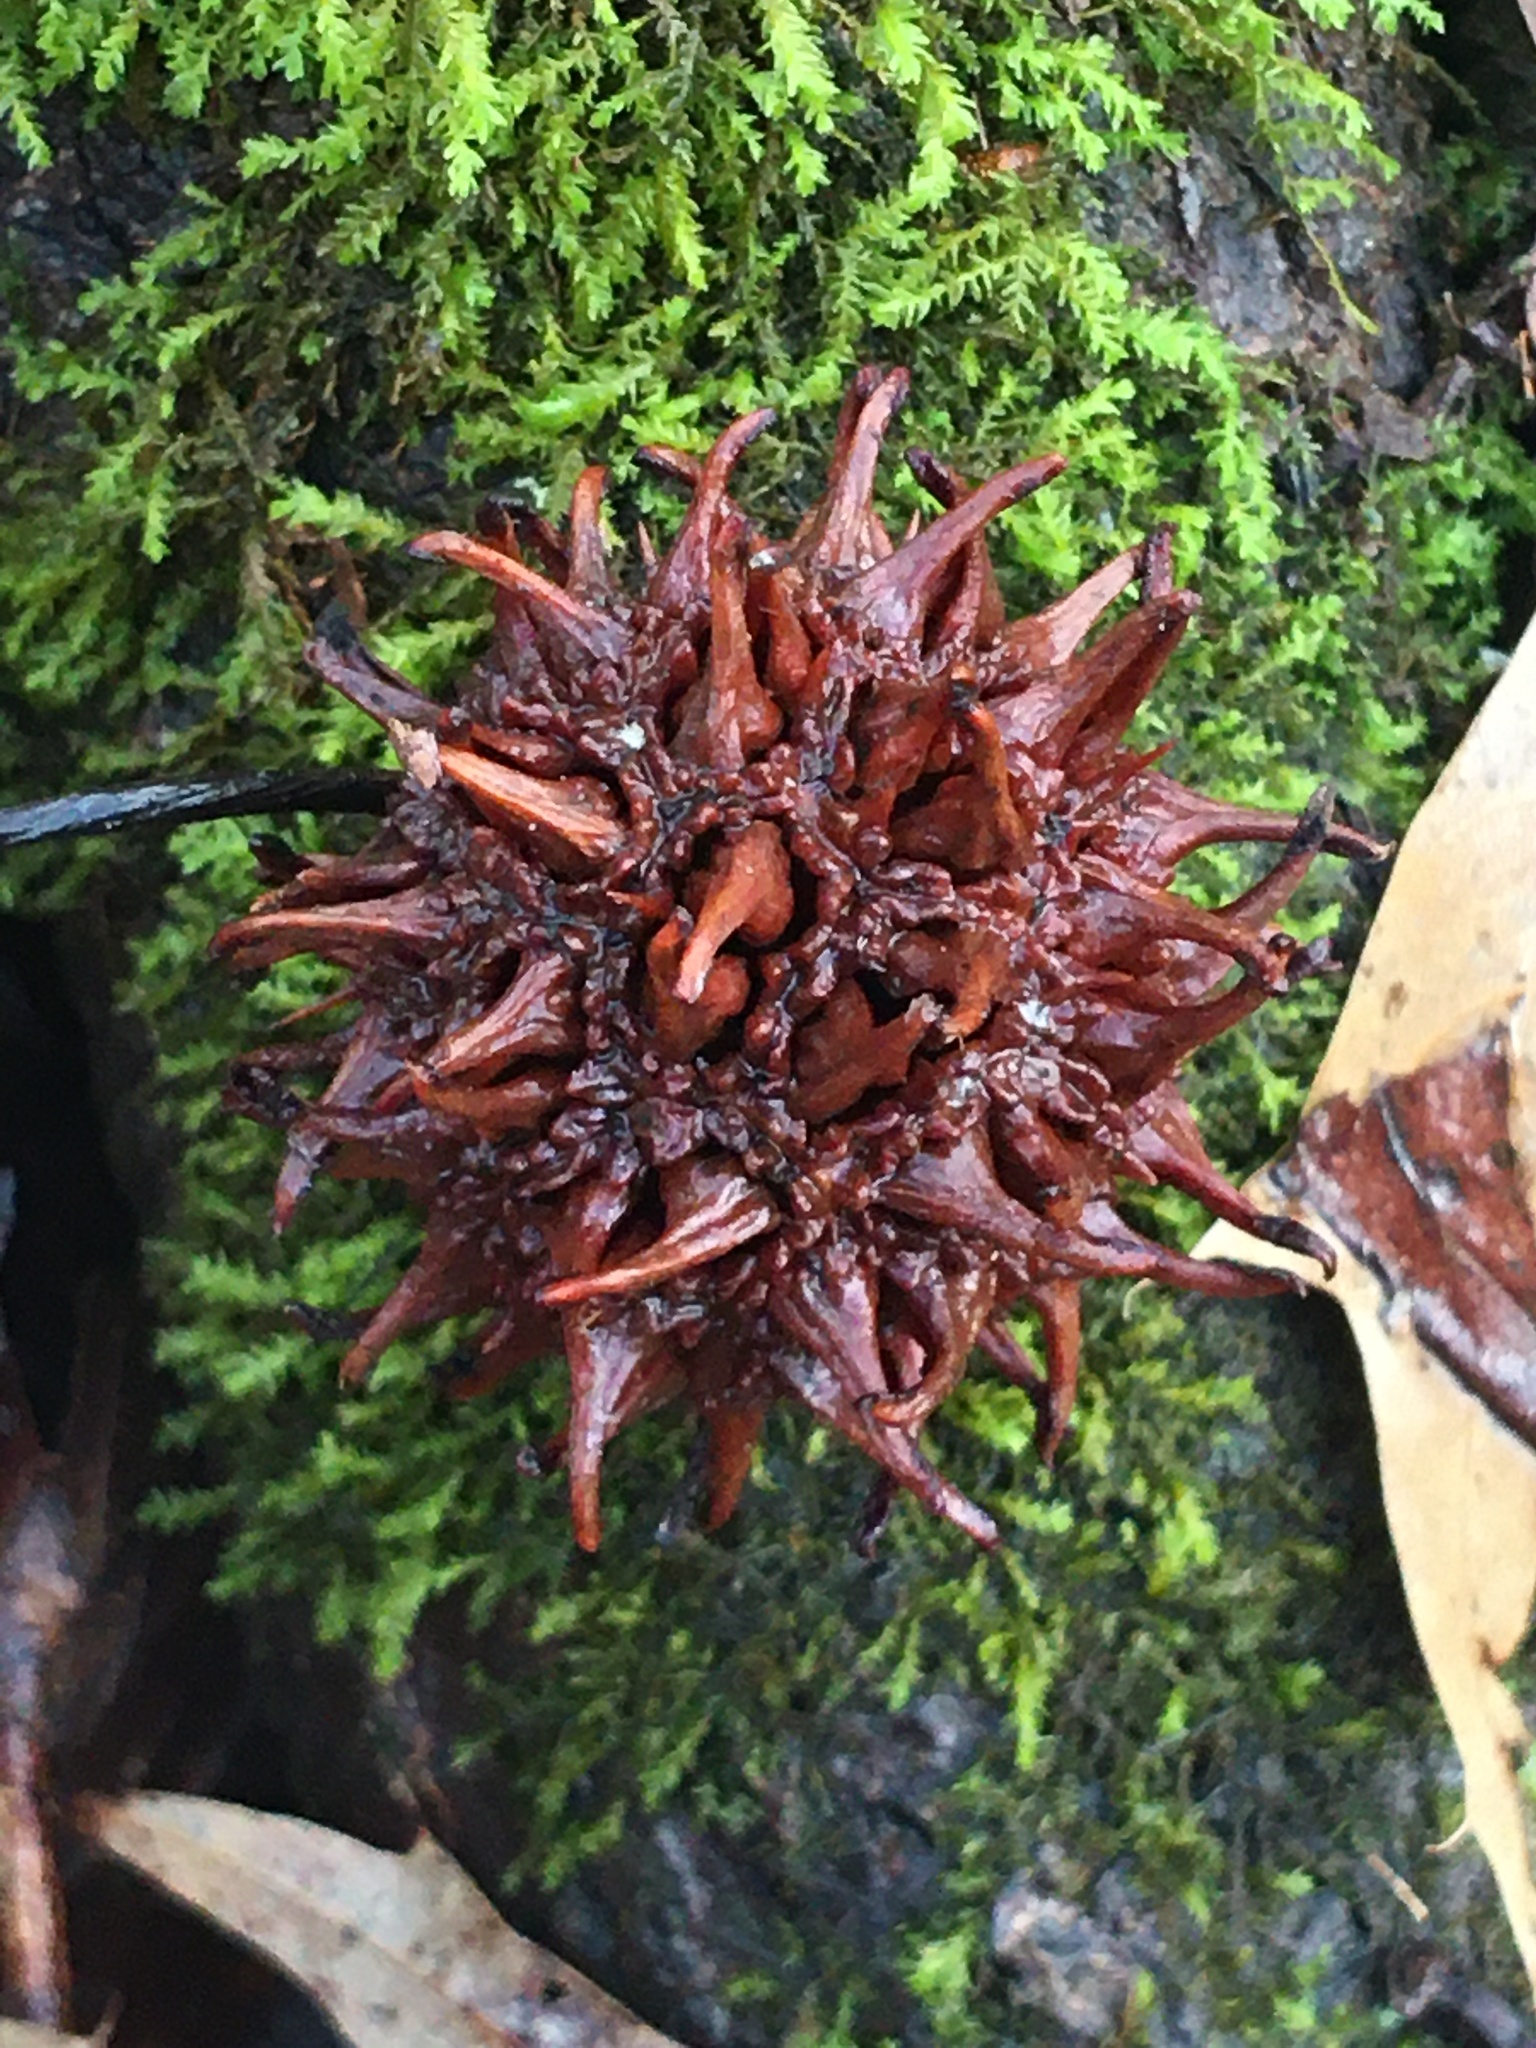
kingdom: Plantae
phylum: Tracheophyta
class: Magnoliopsida
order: Saxifragales
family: Altingiaceae
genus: Liquidambar
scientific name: Liquidambar styraciflua
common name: Sweet gum
